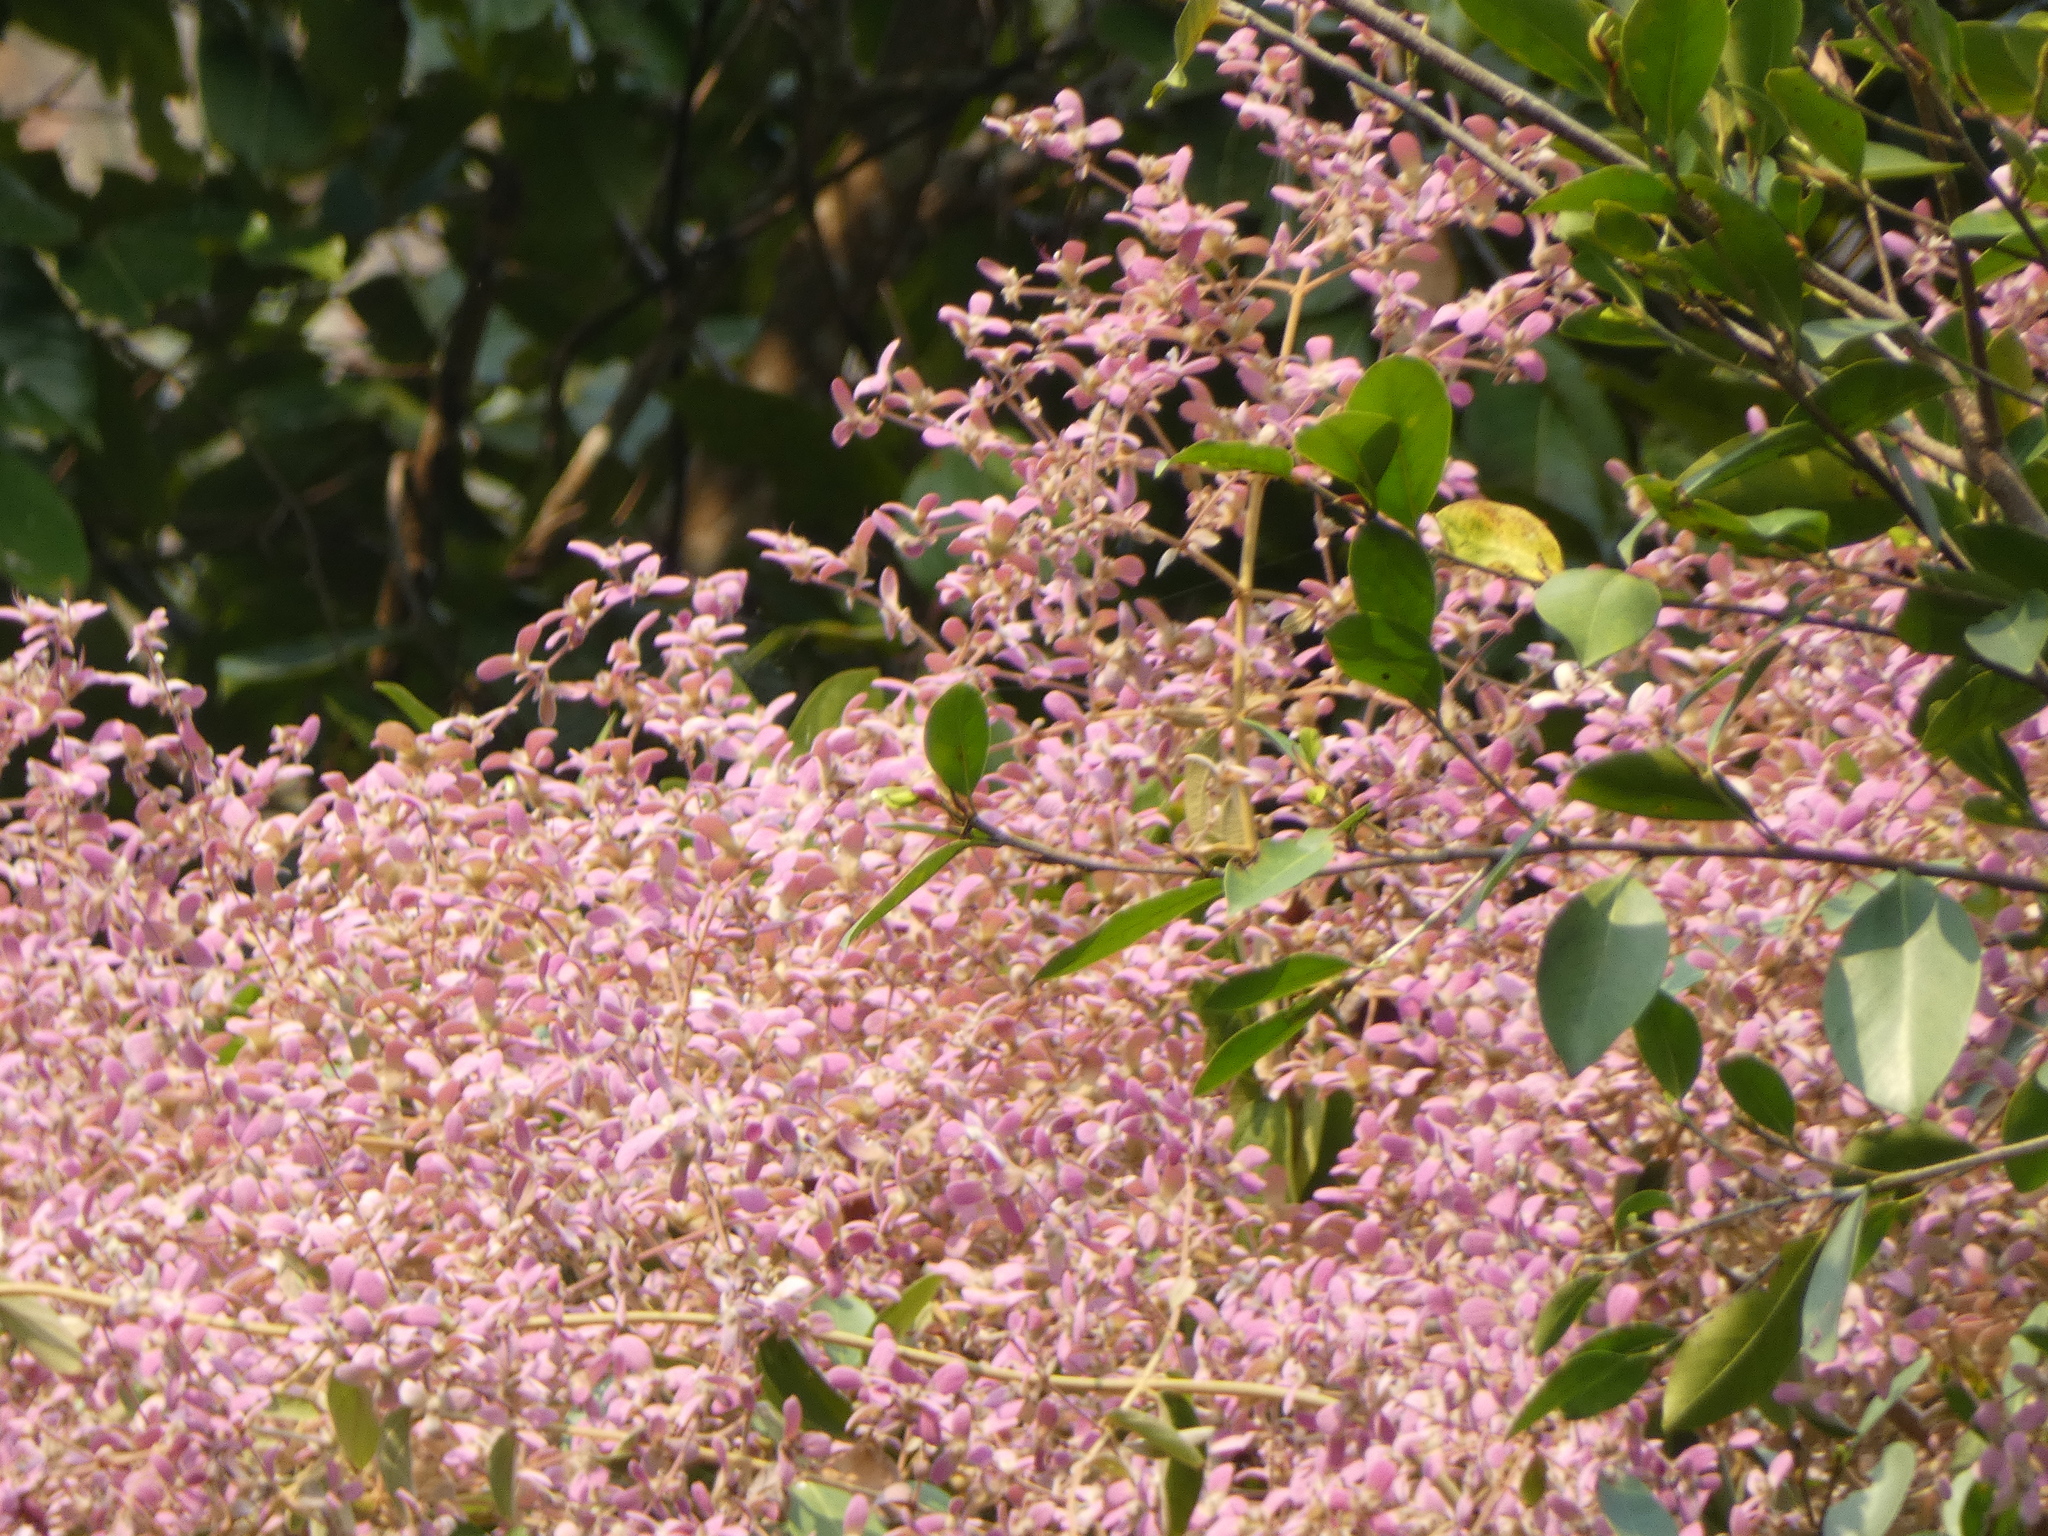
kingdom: Plantae
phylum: Tracheophyta
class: Magnoliopsida
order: Lamiales
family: Lamiaceae
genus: Congea
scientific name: Congea tomentosa
